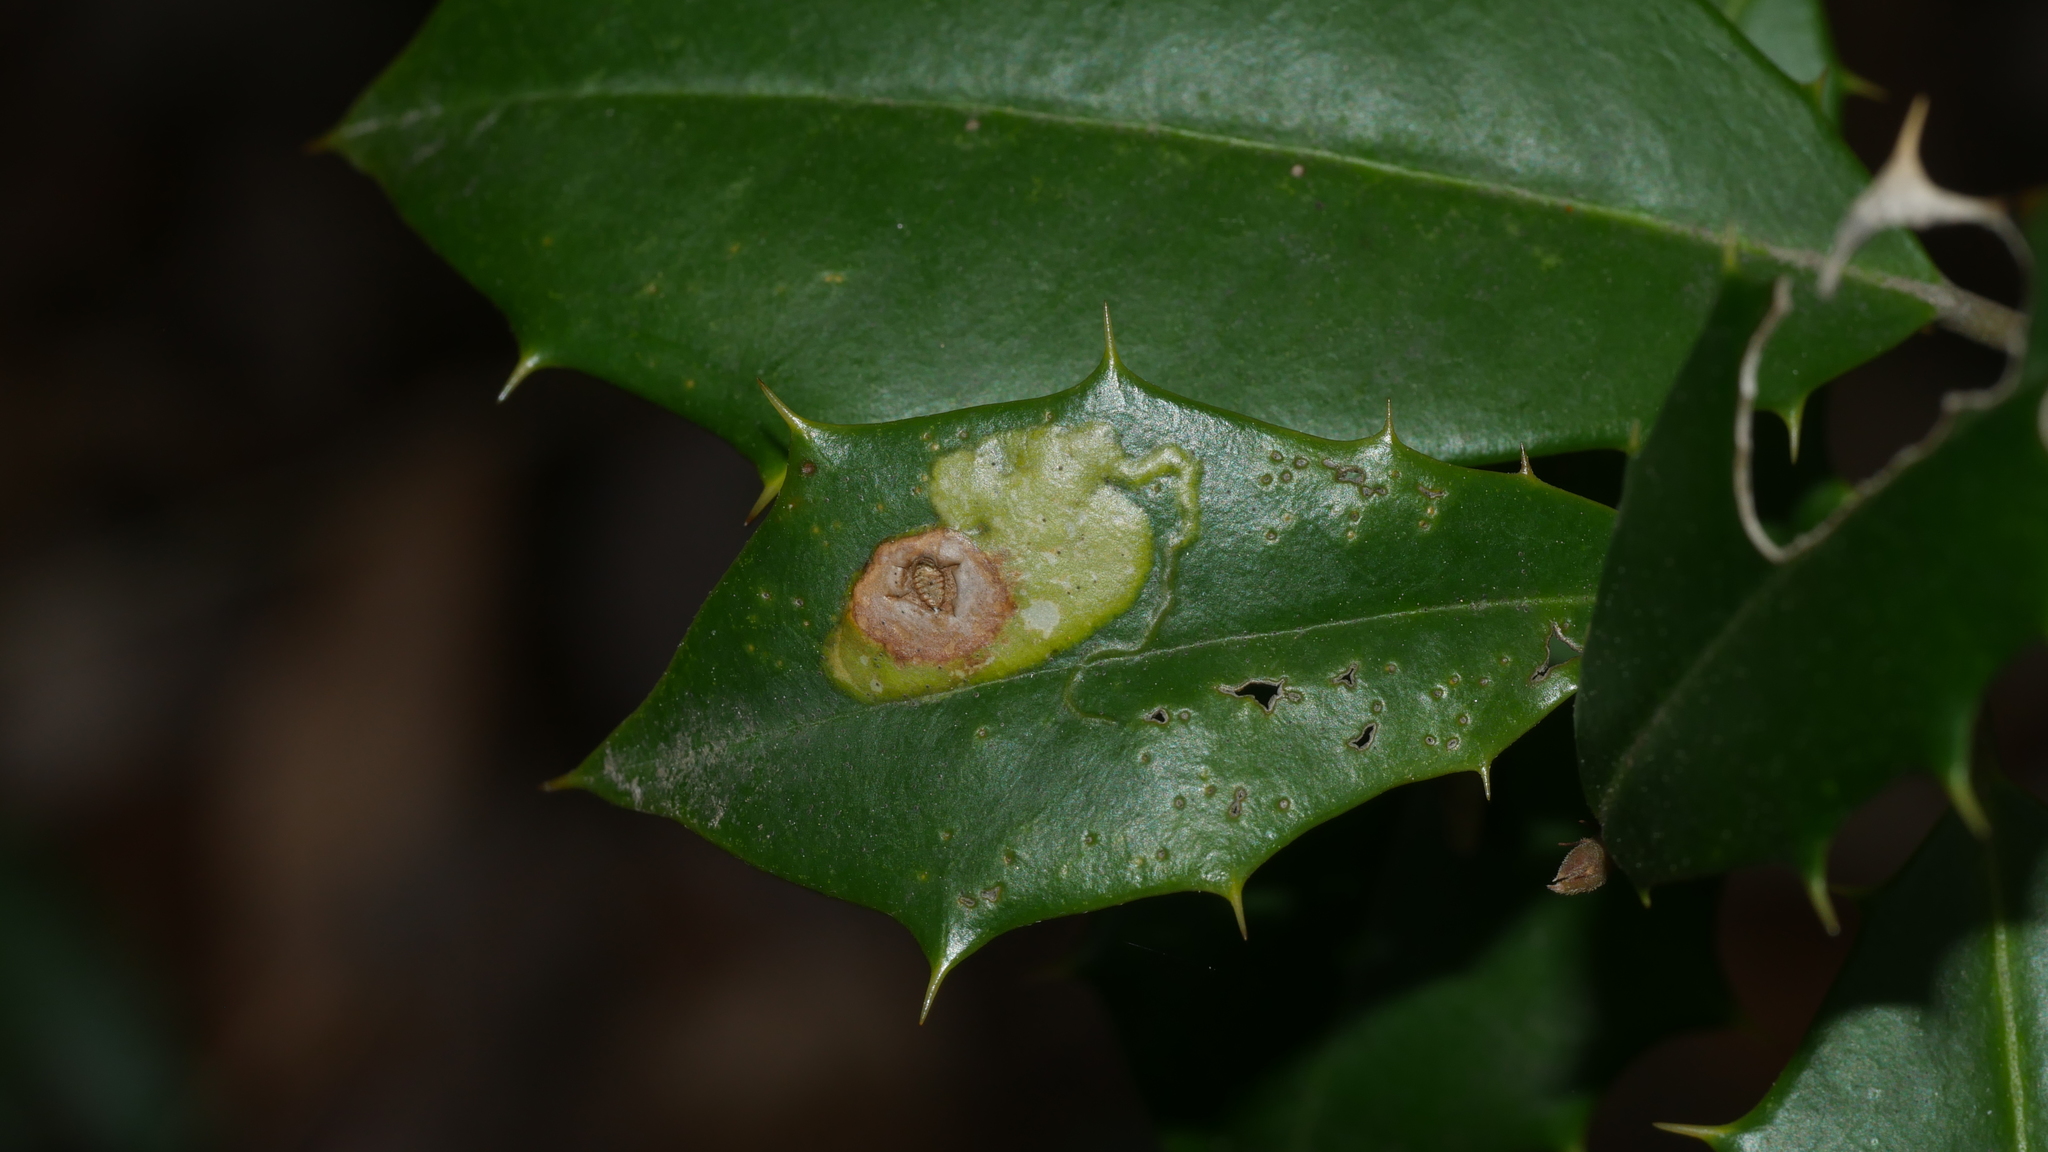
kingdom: Animalia
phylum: Arthropoda
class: Insecta
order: Diptera
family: Agromyzidae
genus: Phytomyza
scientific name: Phytomyza ilicicola
